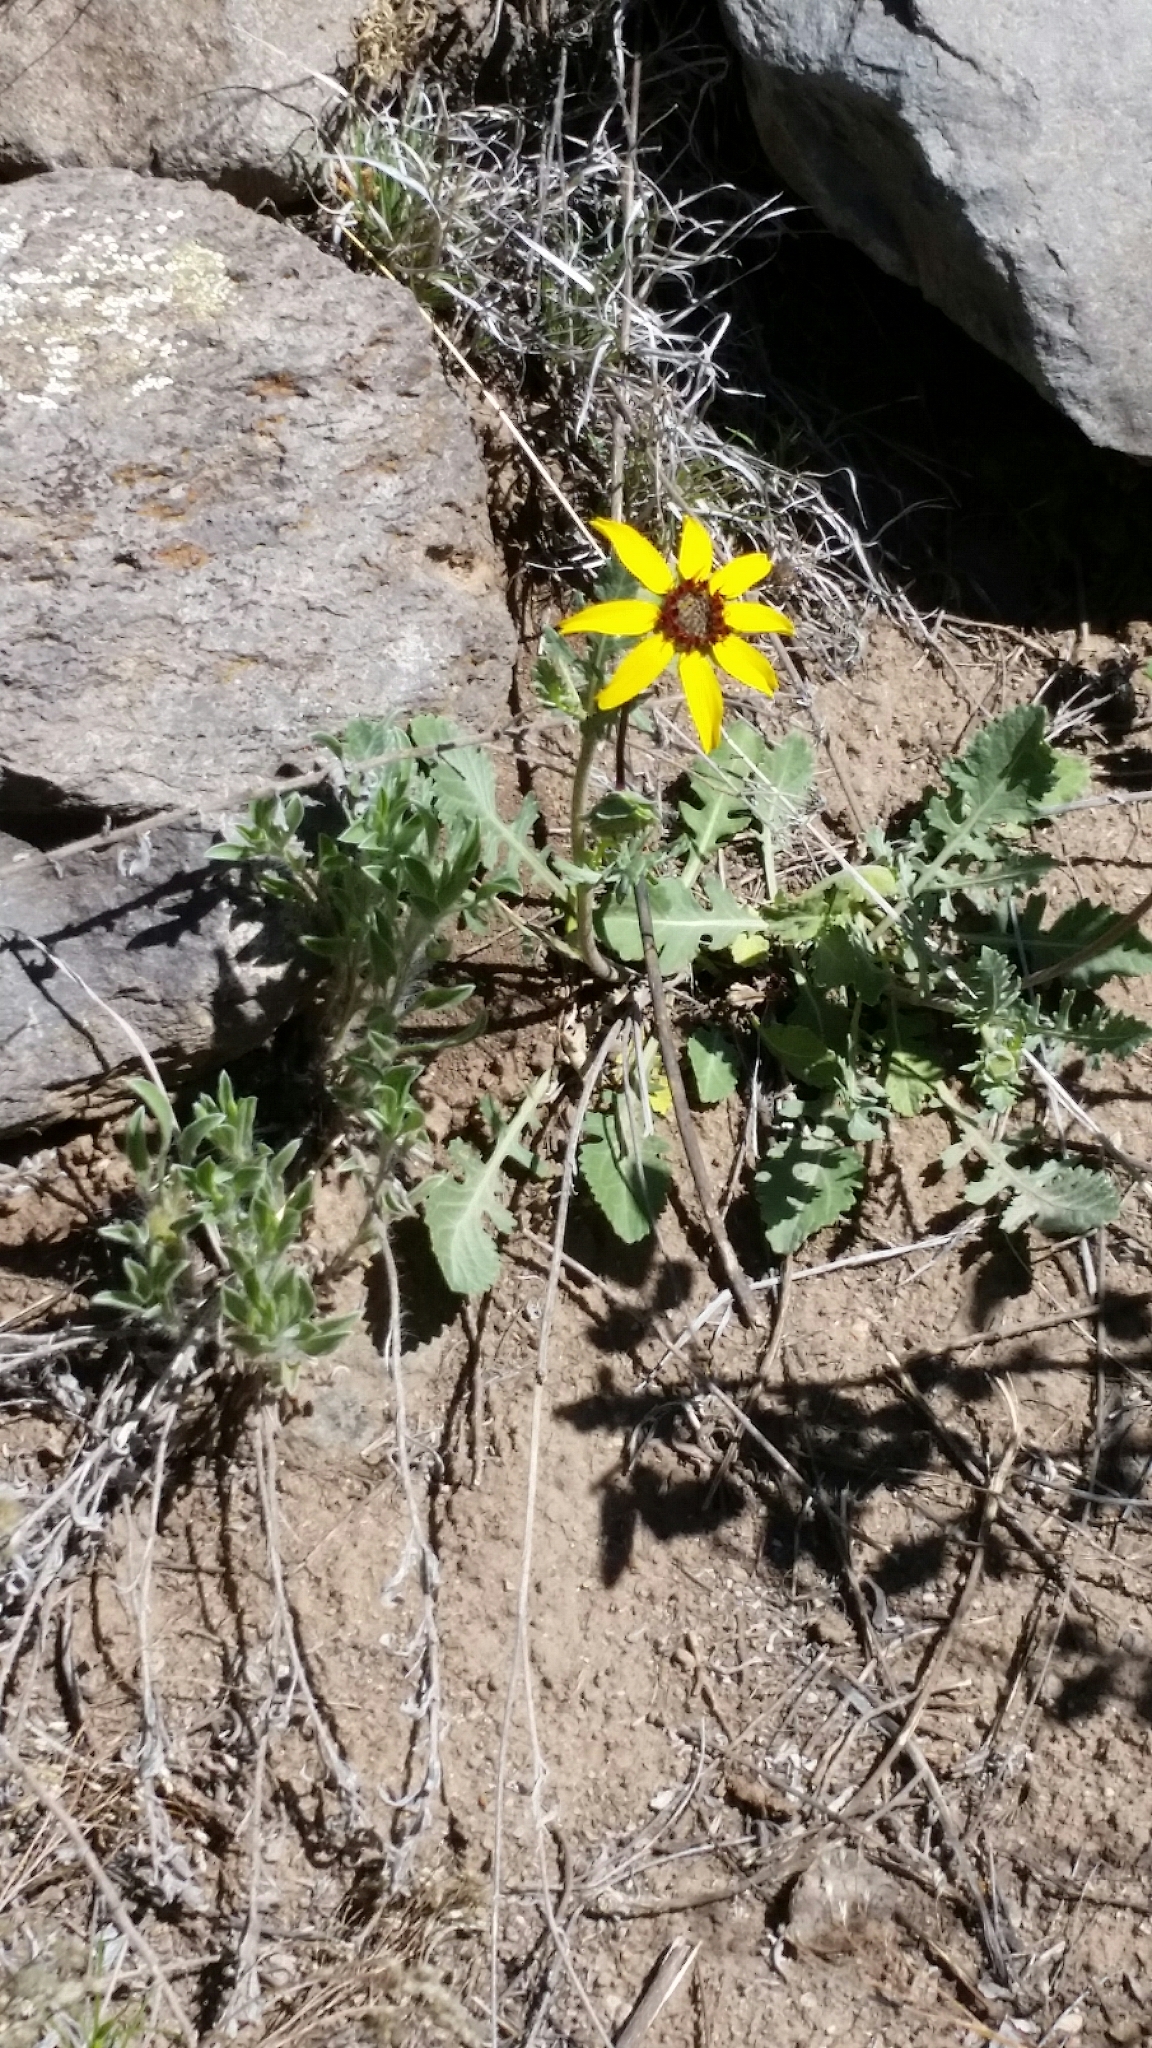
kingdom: Plantae
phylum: Tracheophyta
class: Magnoliopsida
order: Asterales
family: Asteraceae
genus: Berlandiera
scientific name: Berlandiera lyrata
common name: Chocolate-flower
